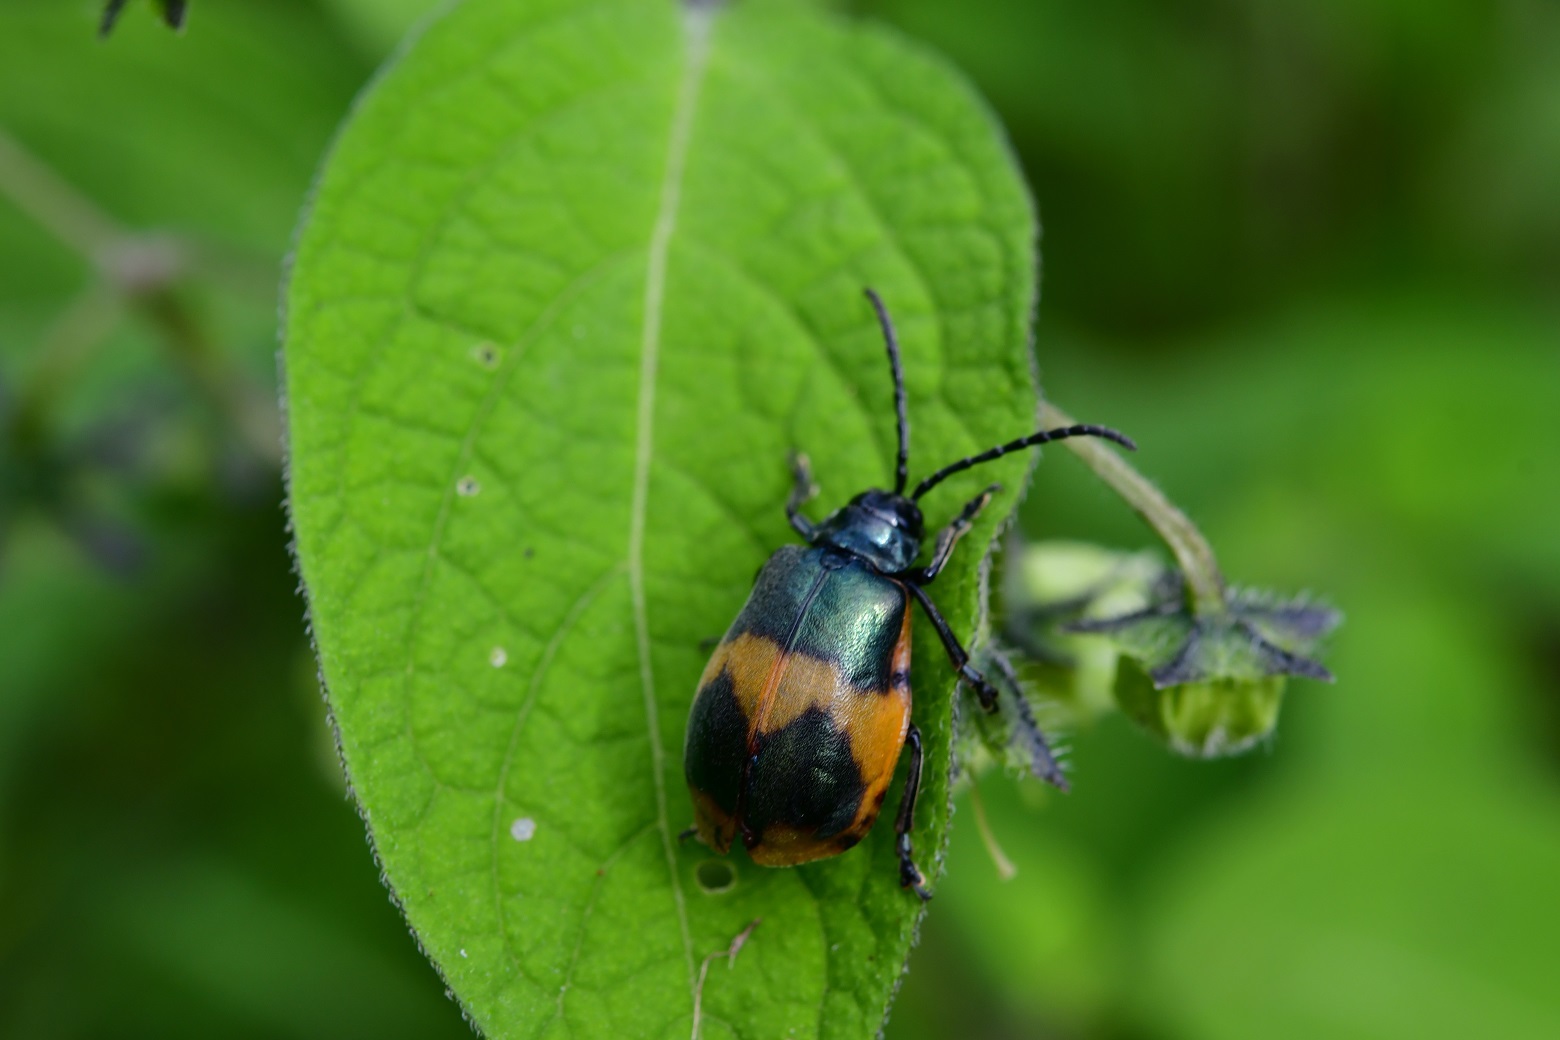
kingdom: Animalia
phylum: Arthropoda
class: Insecta
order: Coleoptera
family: Chrysomelidae
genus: Monocesta
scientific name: Monocesta
